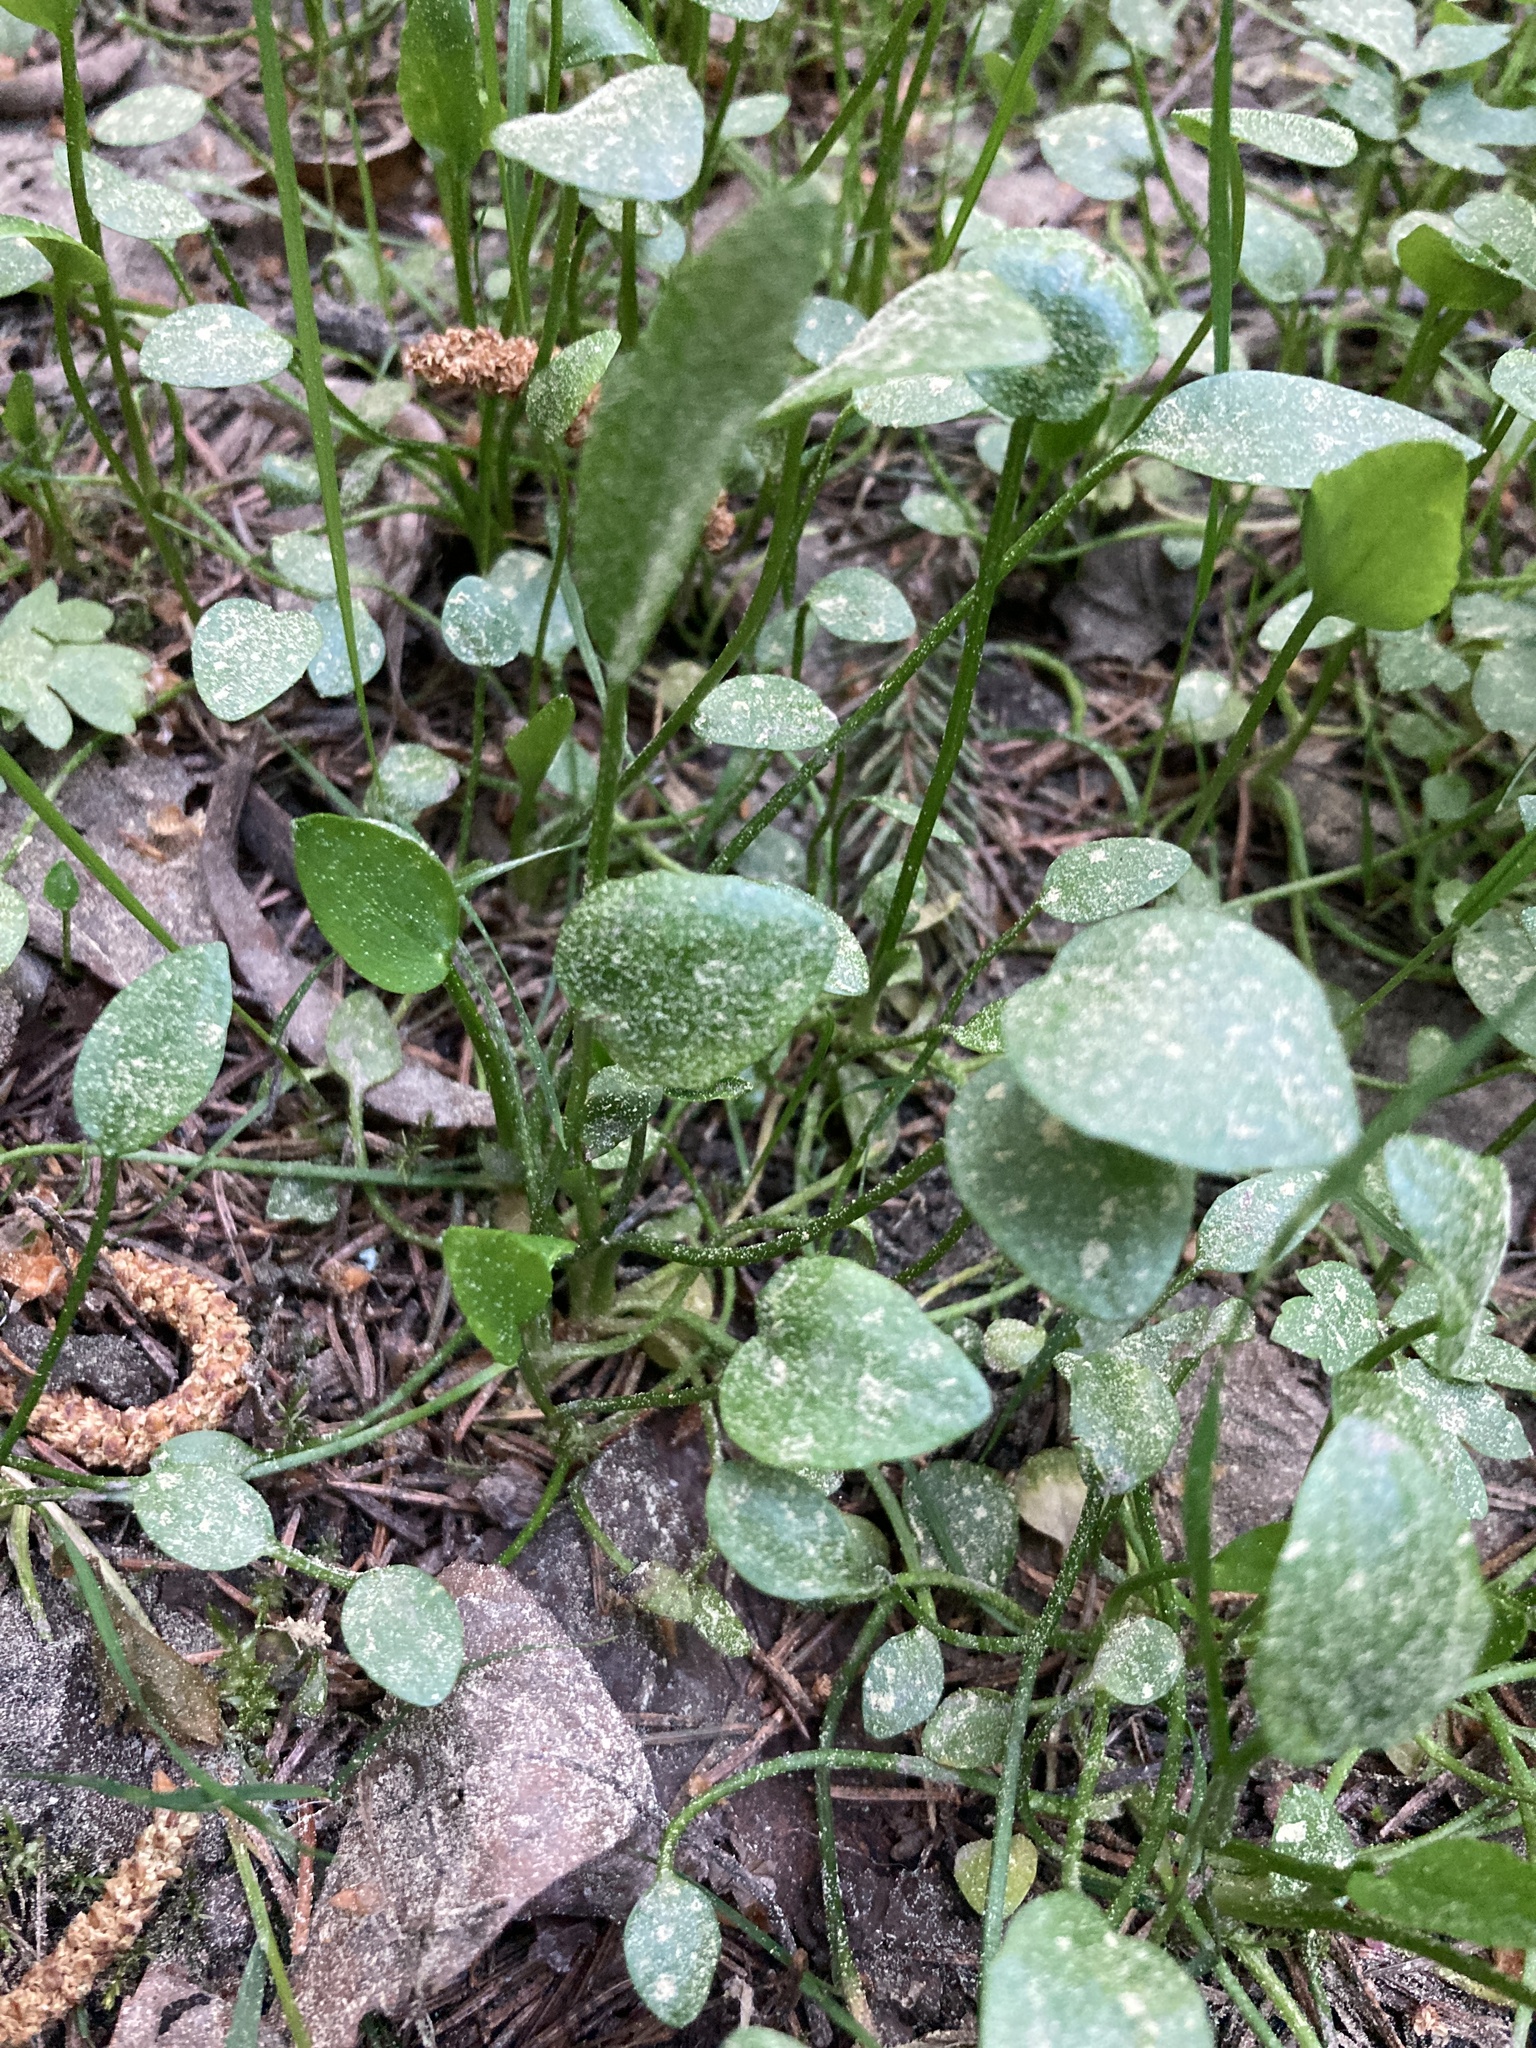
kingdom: Plantae
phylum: Tracheophyta
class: Magnoliopsida
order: Ranunculales
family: Ranunculaceae
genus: Ranunculus
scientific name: Ranunculus flammula
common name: Lesser spearwort
